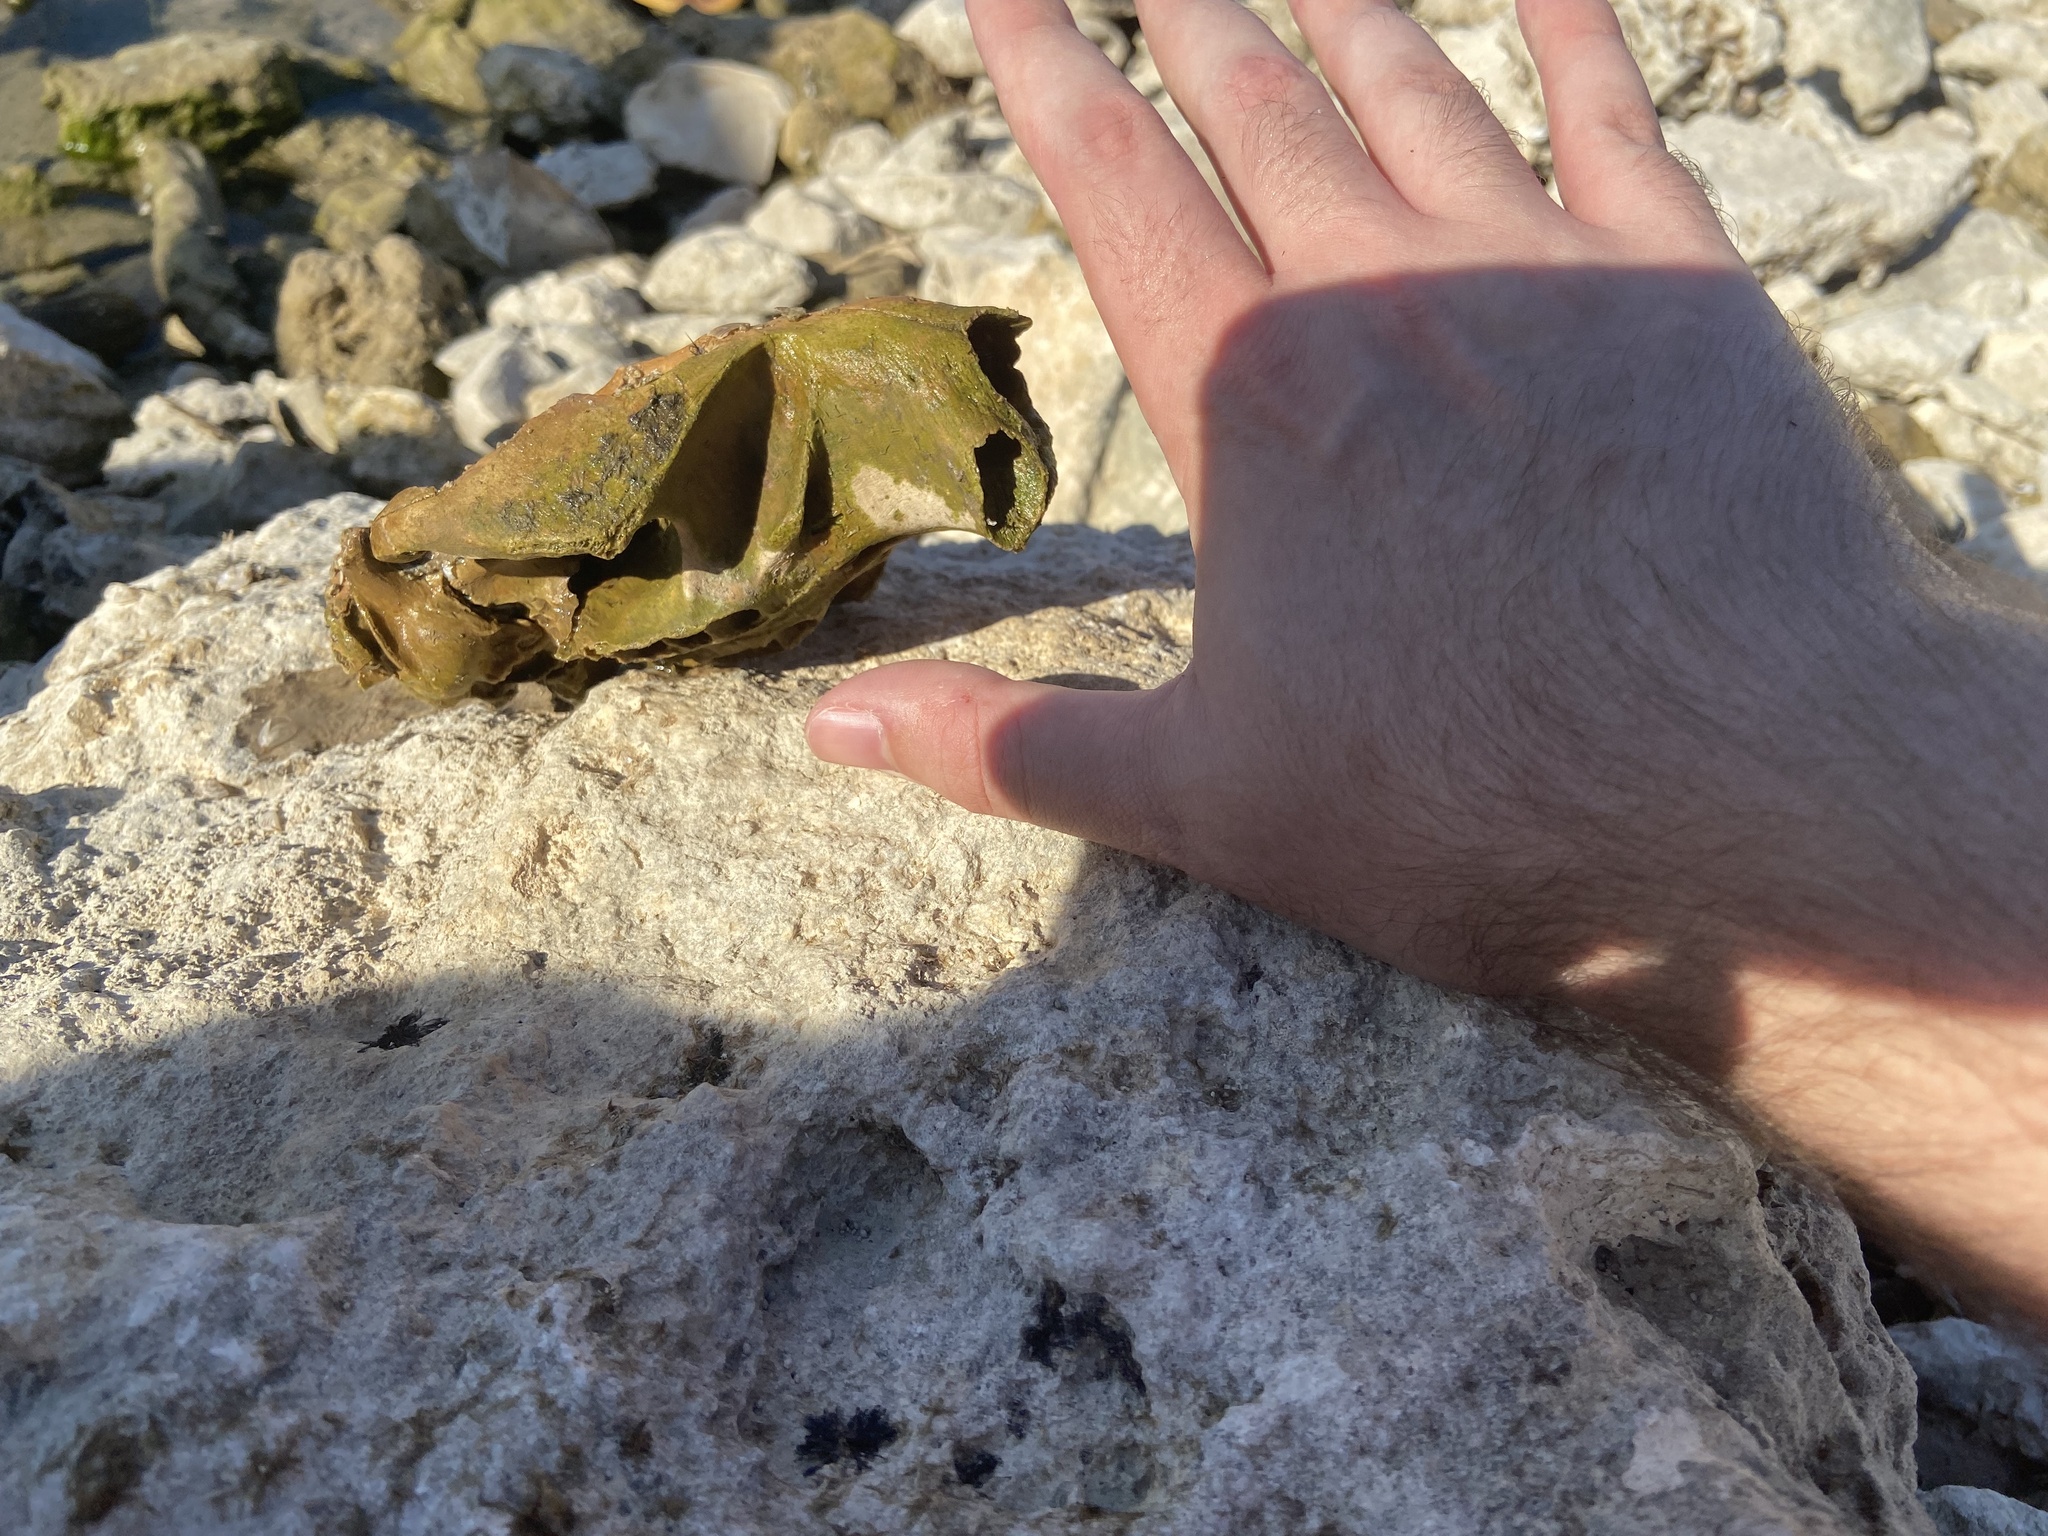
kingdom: Animalia
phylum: Chordata
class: Mammalia
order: Rodentia
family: Castoridae
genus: Castor
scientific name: Castor canadensis
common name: American beaver
